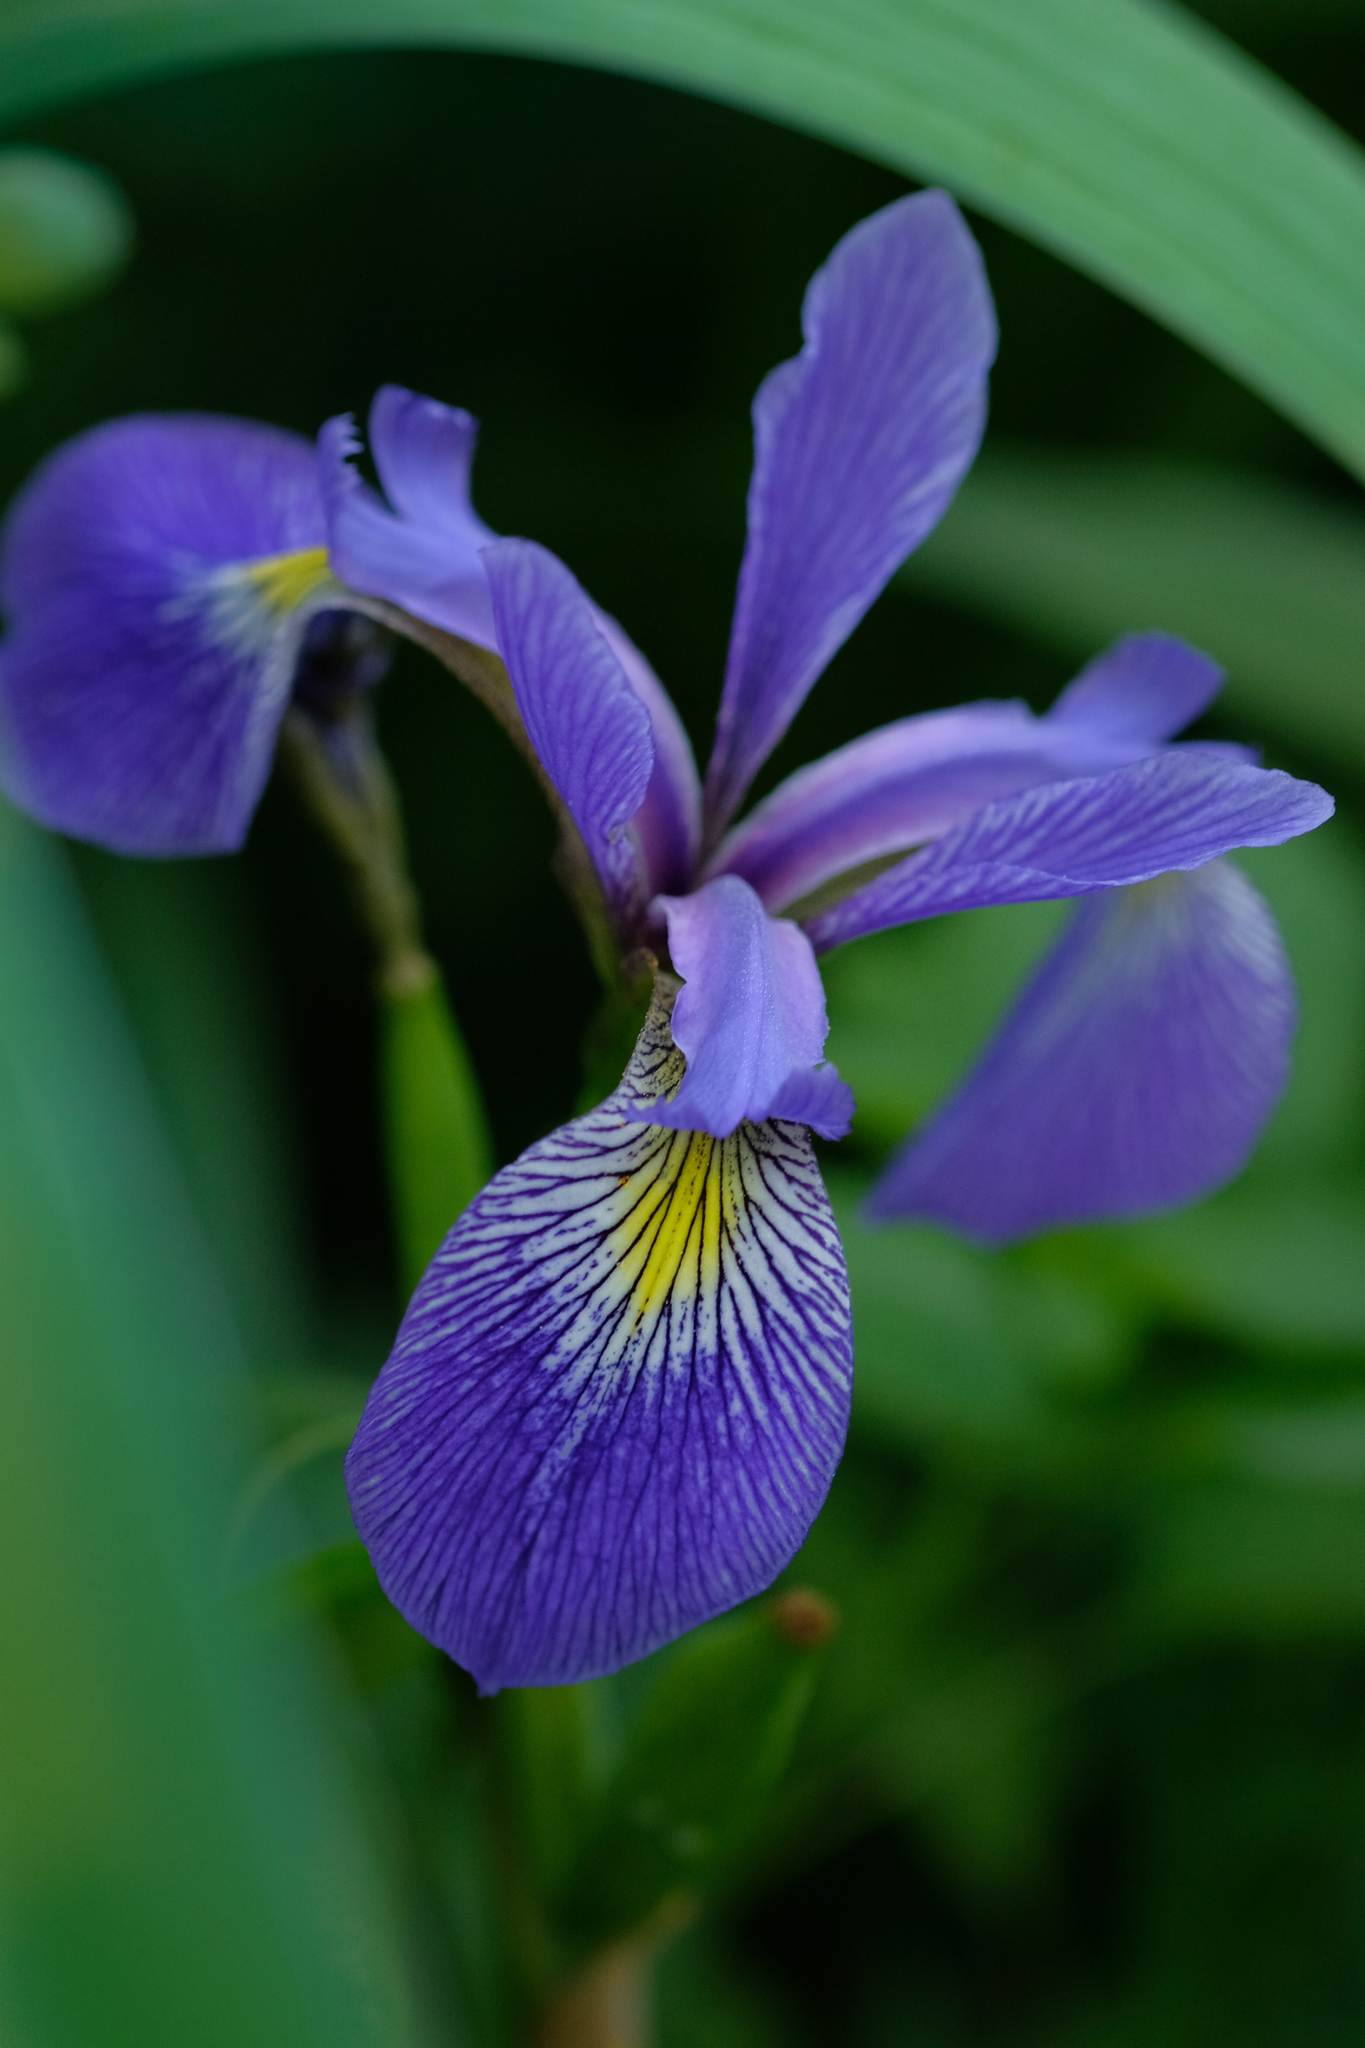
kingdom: Plantae
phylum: Tracheophyta
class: Liliopsida
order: Asparagales
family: Iridaceae
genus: Iris
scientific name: Iris versicolor
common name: Purple iris
